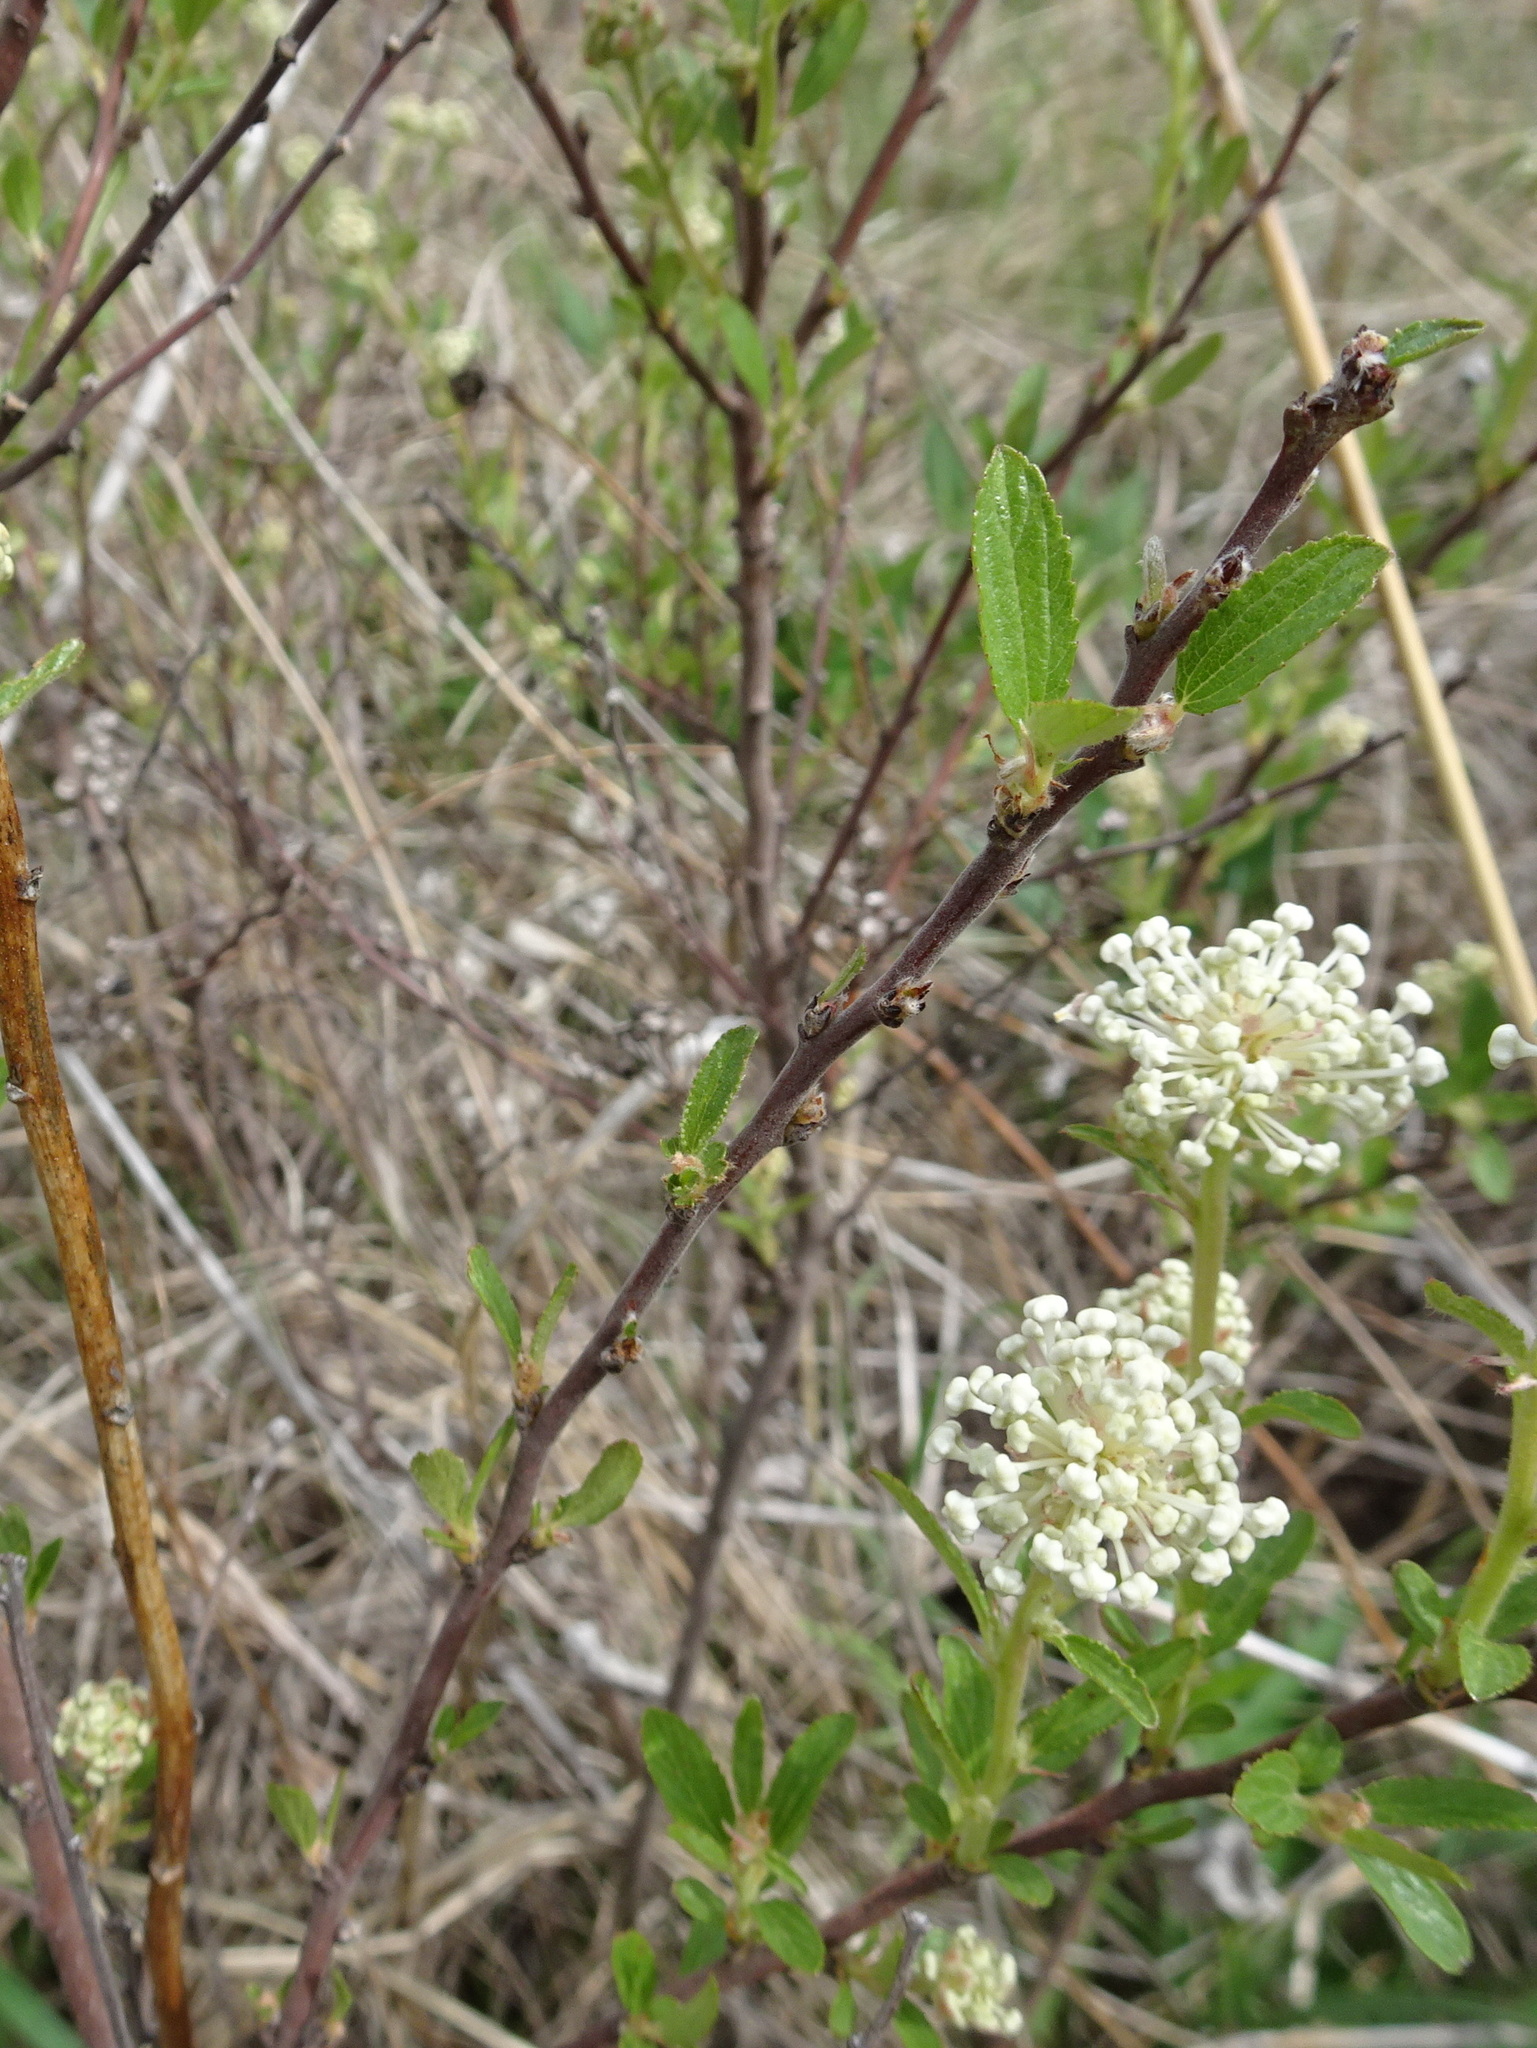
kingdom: Plantae
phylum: Tracheophyta
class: Magnoliopsida
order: Rosales
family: Rhamnaceae
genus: Ceanothus
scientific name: Ceanothus herbaceus
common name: Inland ceanothus
